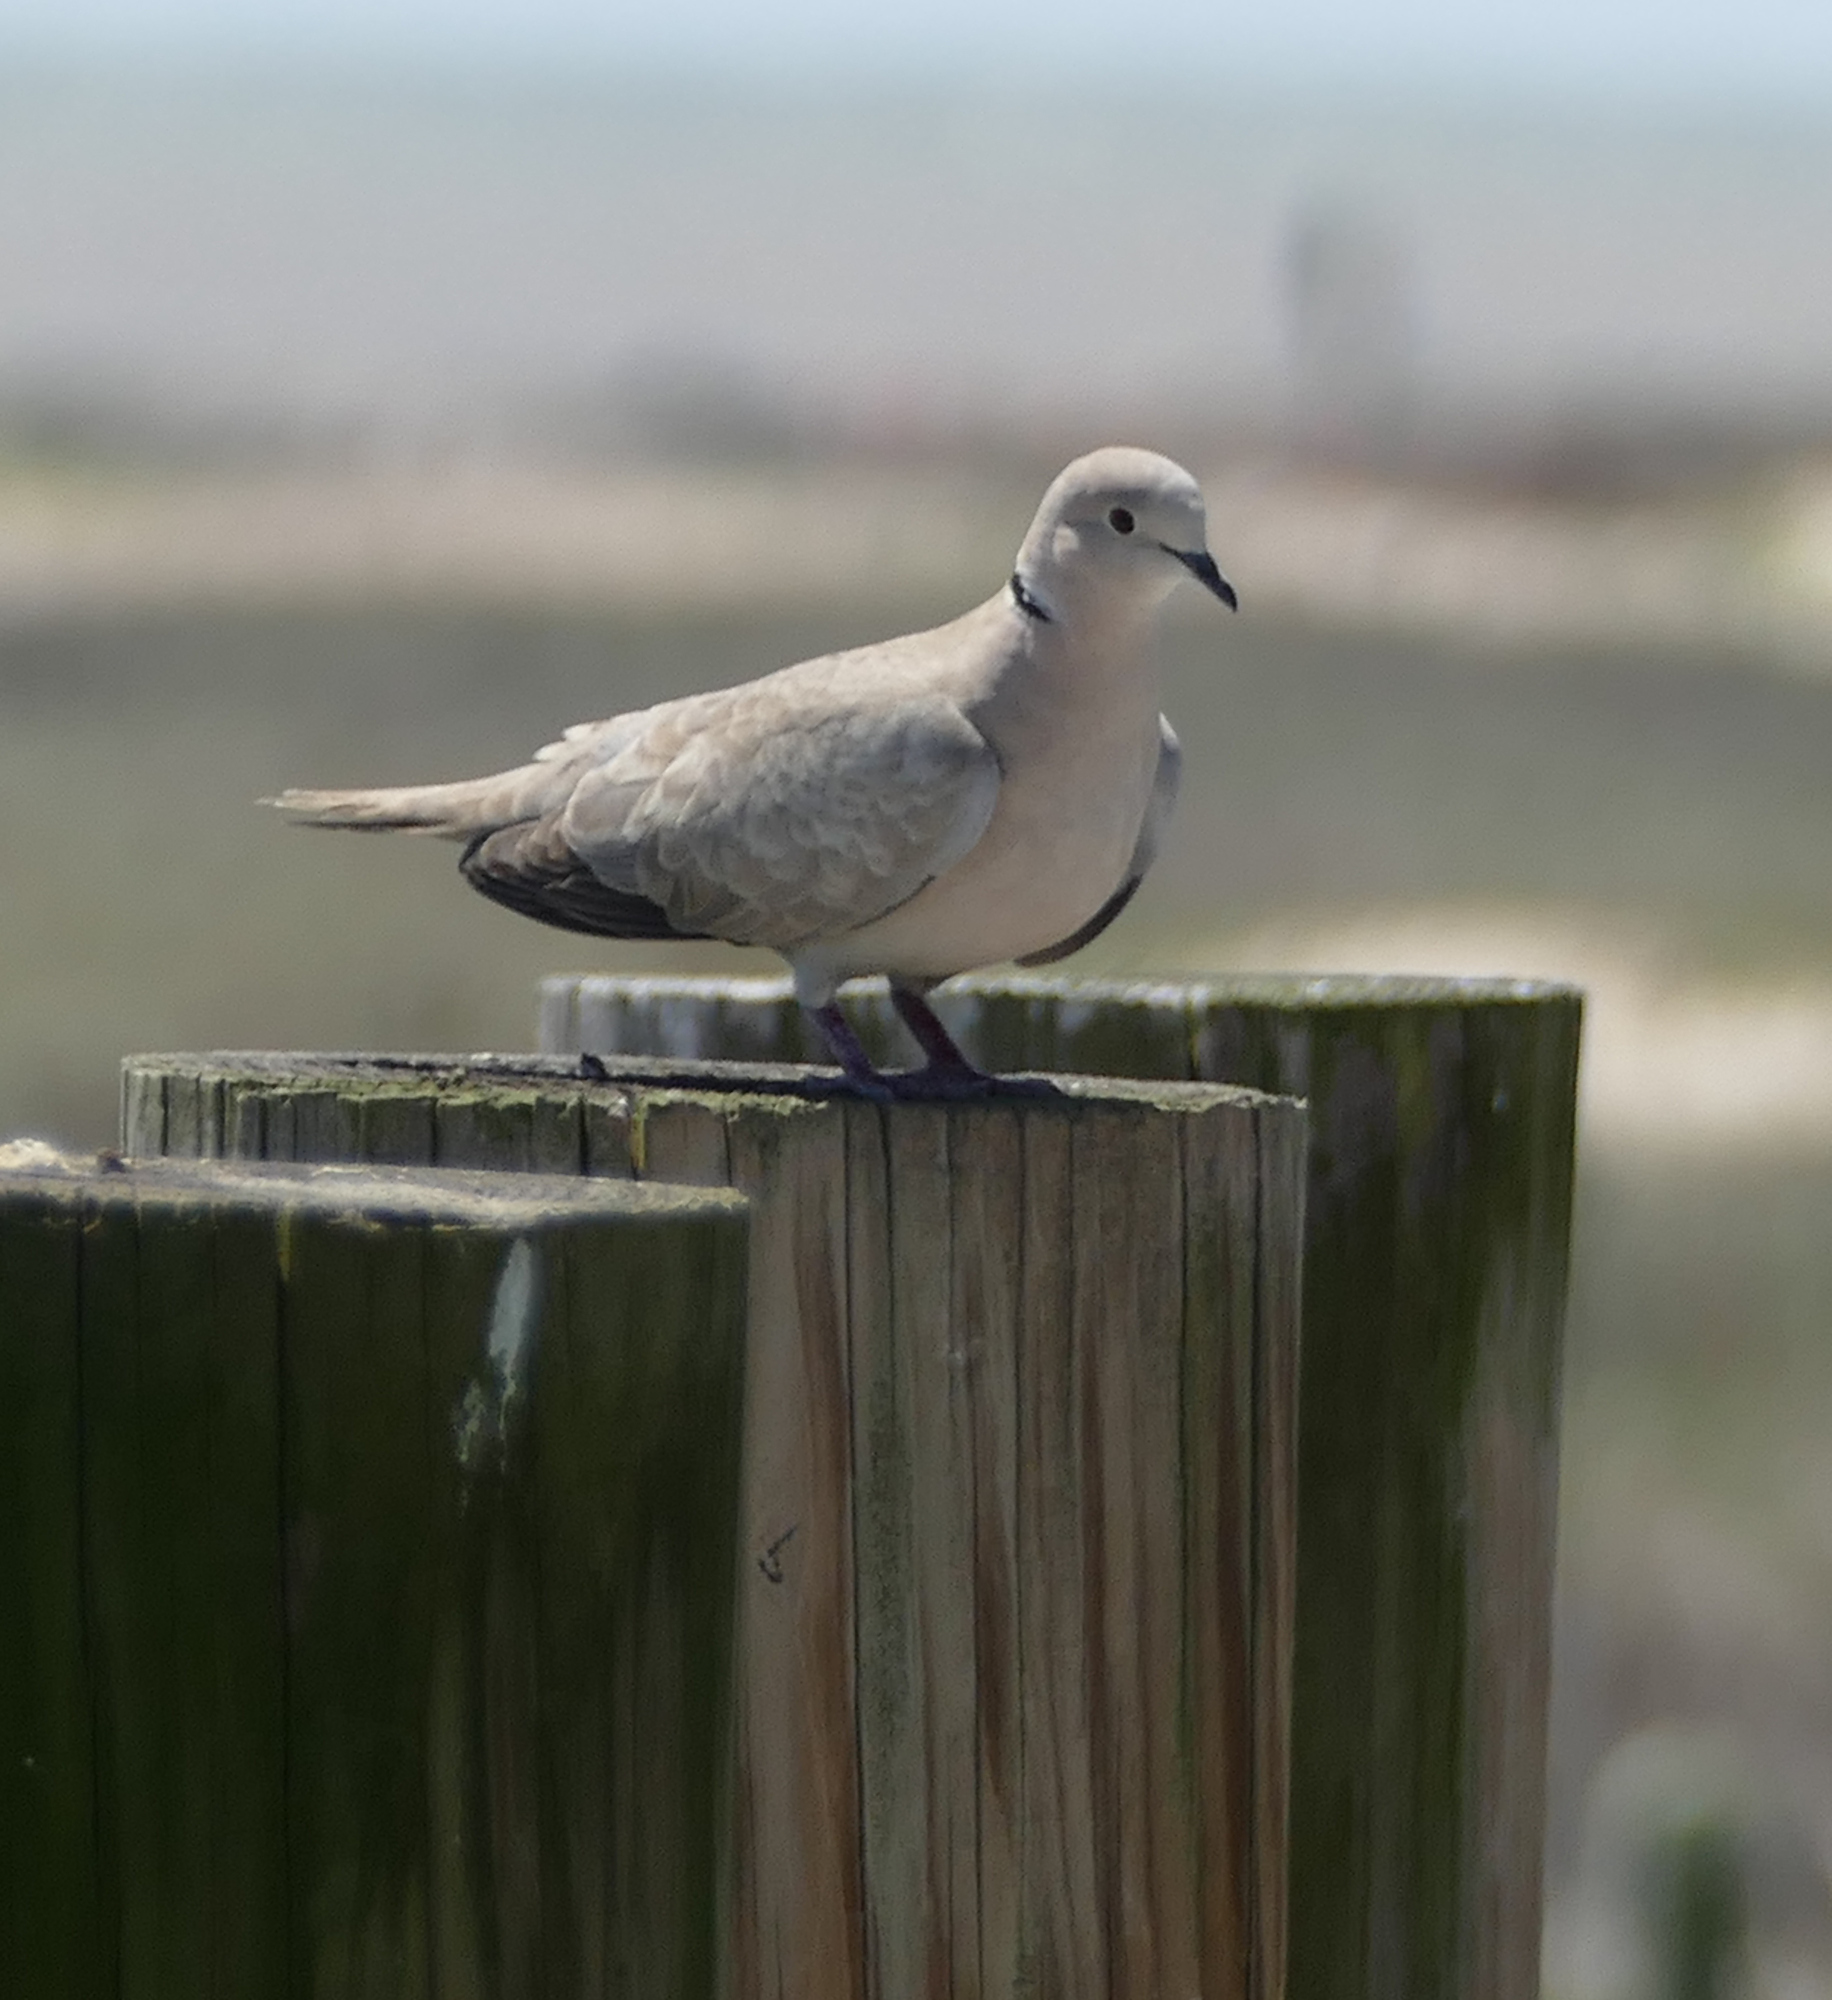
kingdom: Animalia
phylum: Chordata
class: Aves
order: Columbiformes
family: Columbidae
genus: Streptopelia
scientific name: Streptopelia decaocto
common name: Eurasian collared dove
